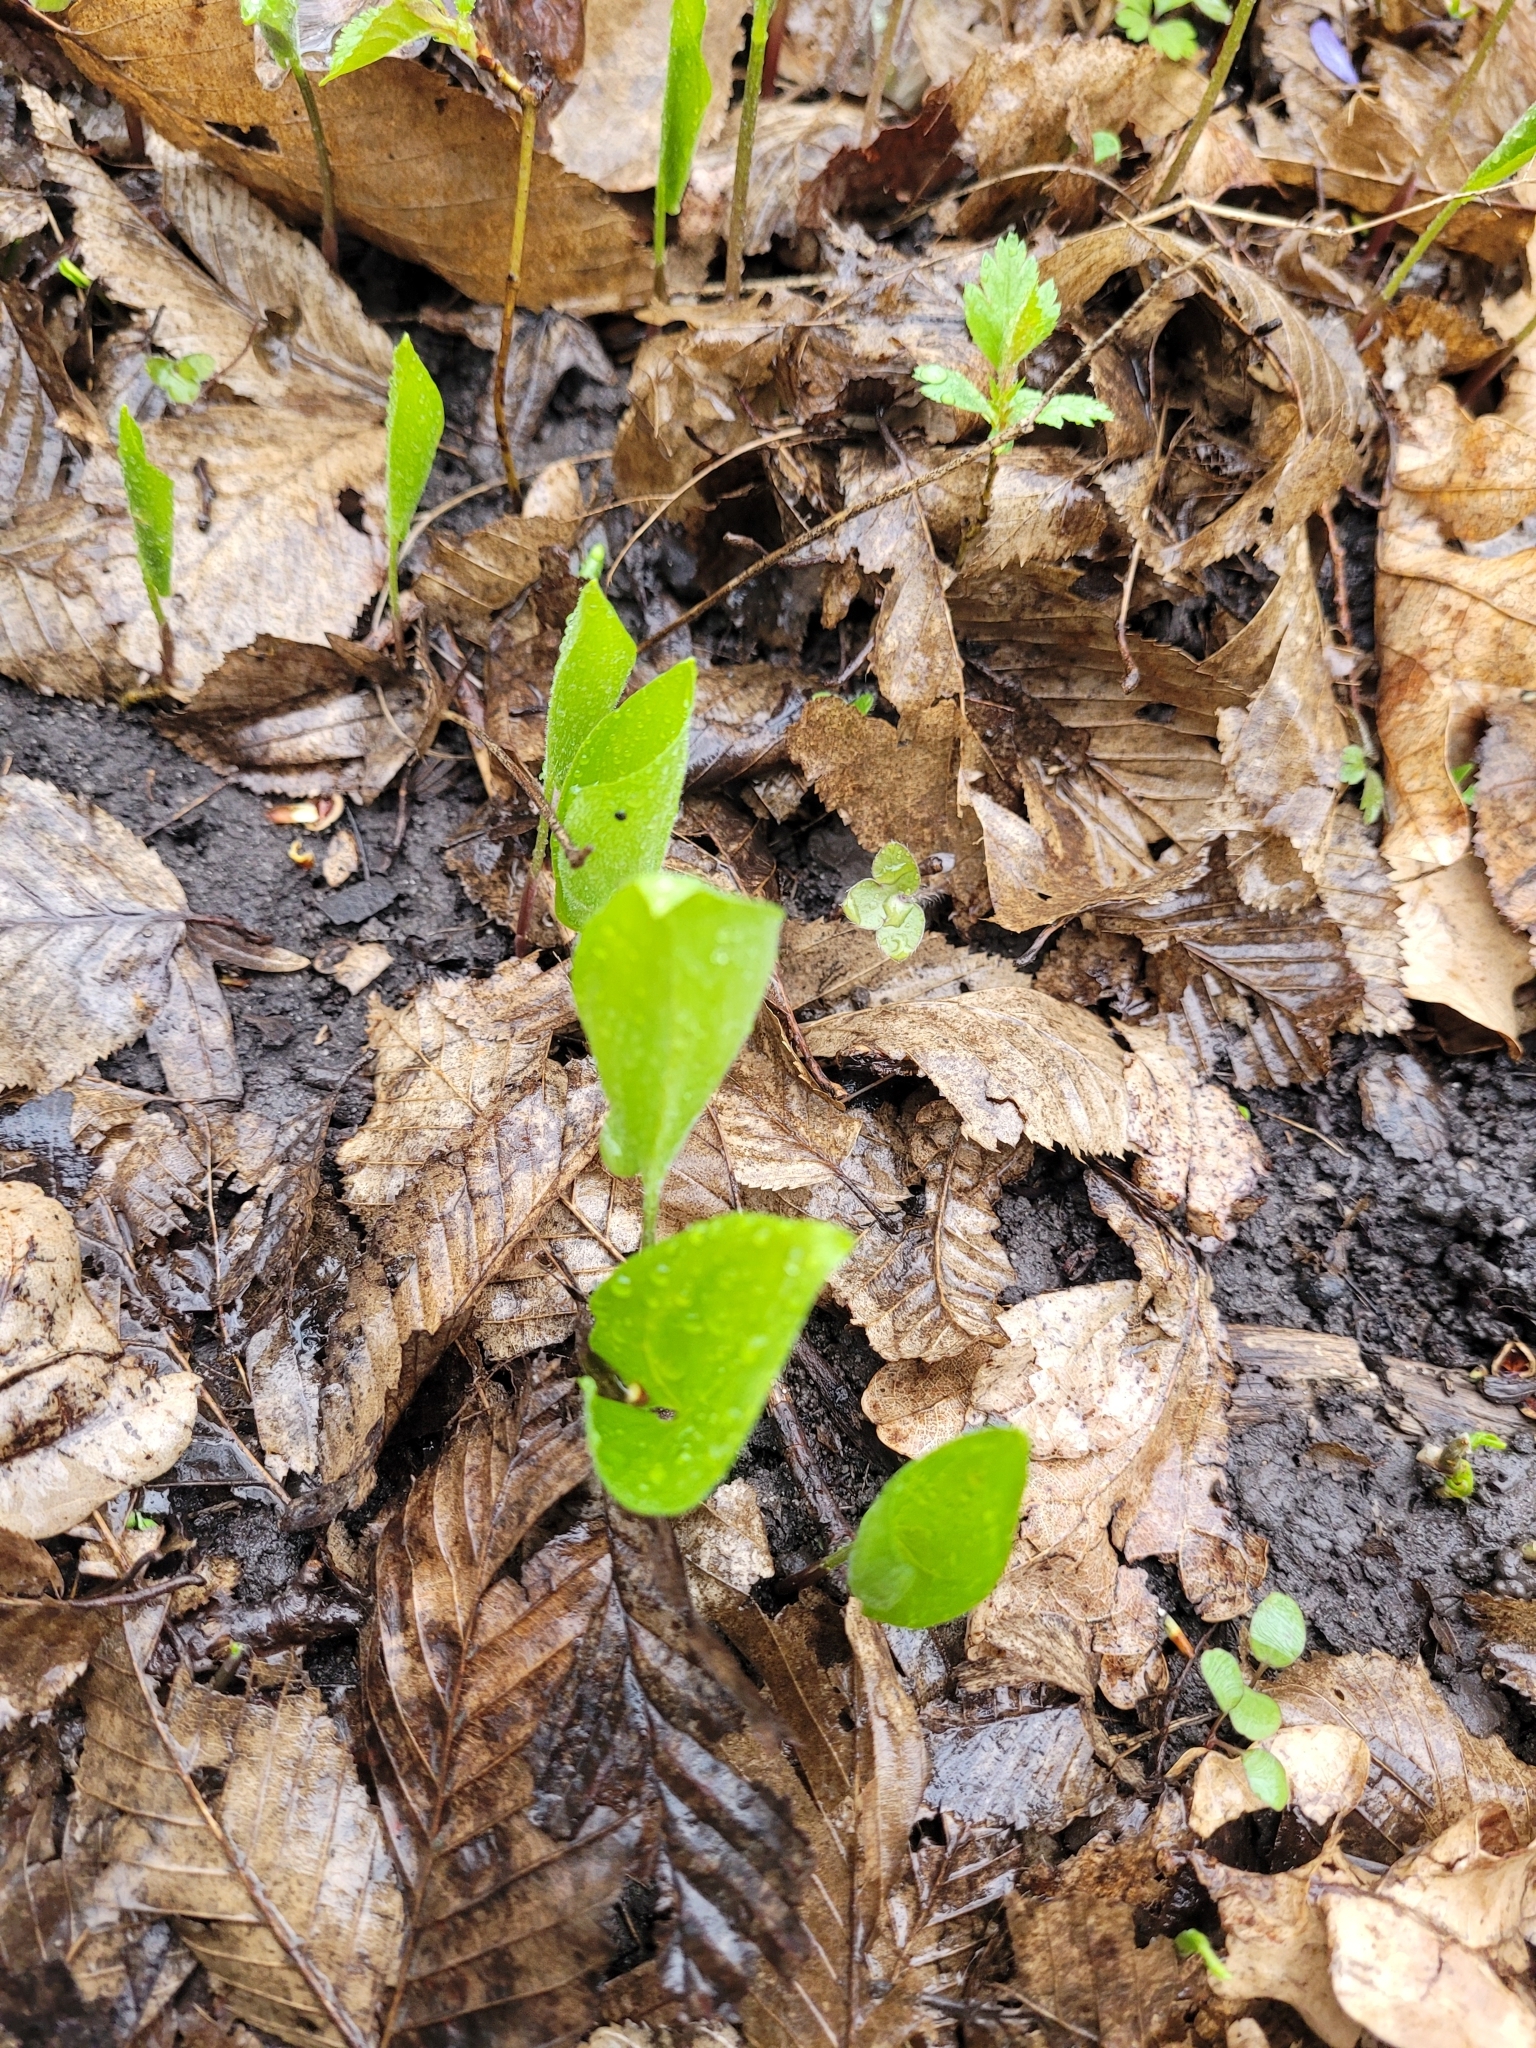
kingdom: Plantae
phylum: Tracheophyta
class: Liliopsida
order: Asparagales
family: Asparagaceae
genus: Maianthemum
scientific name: Maianthemum bifolium
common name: May lily
